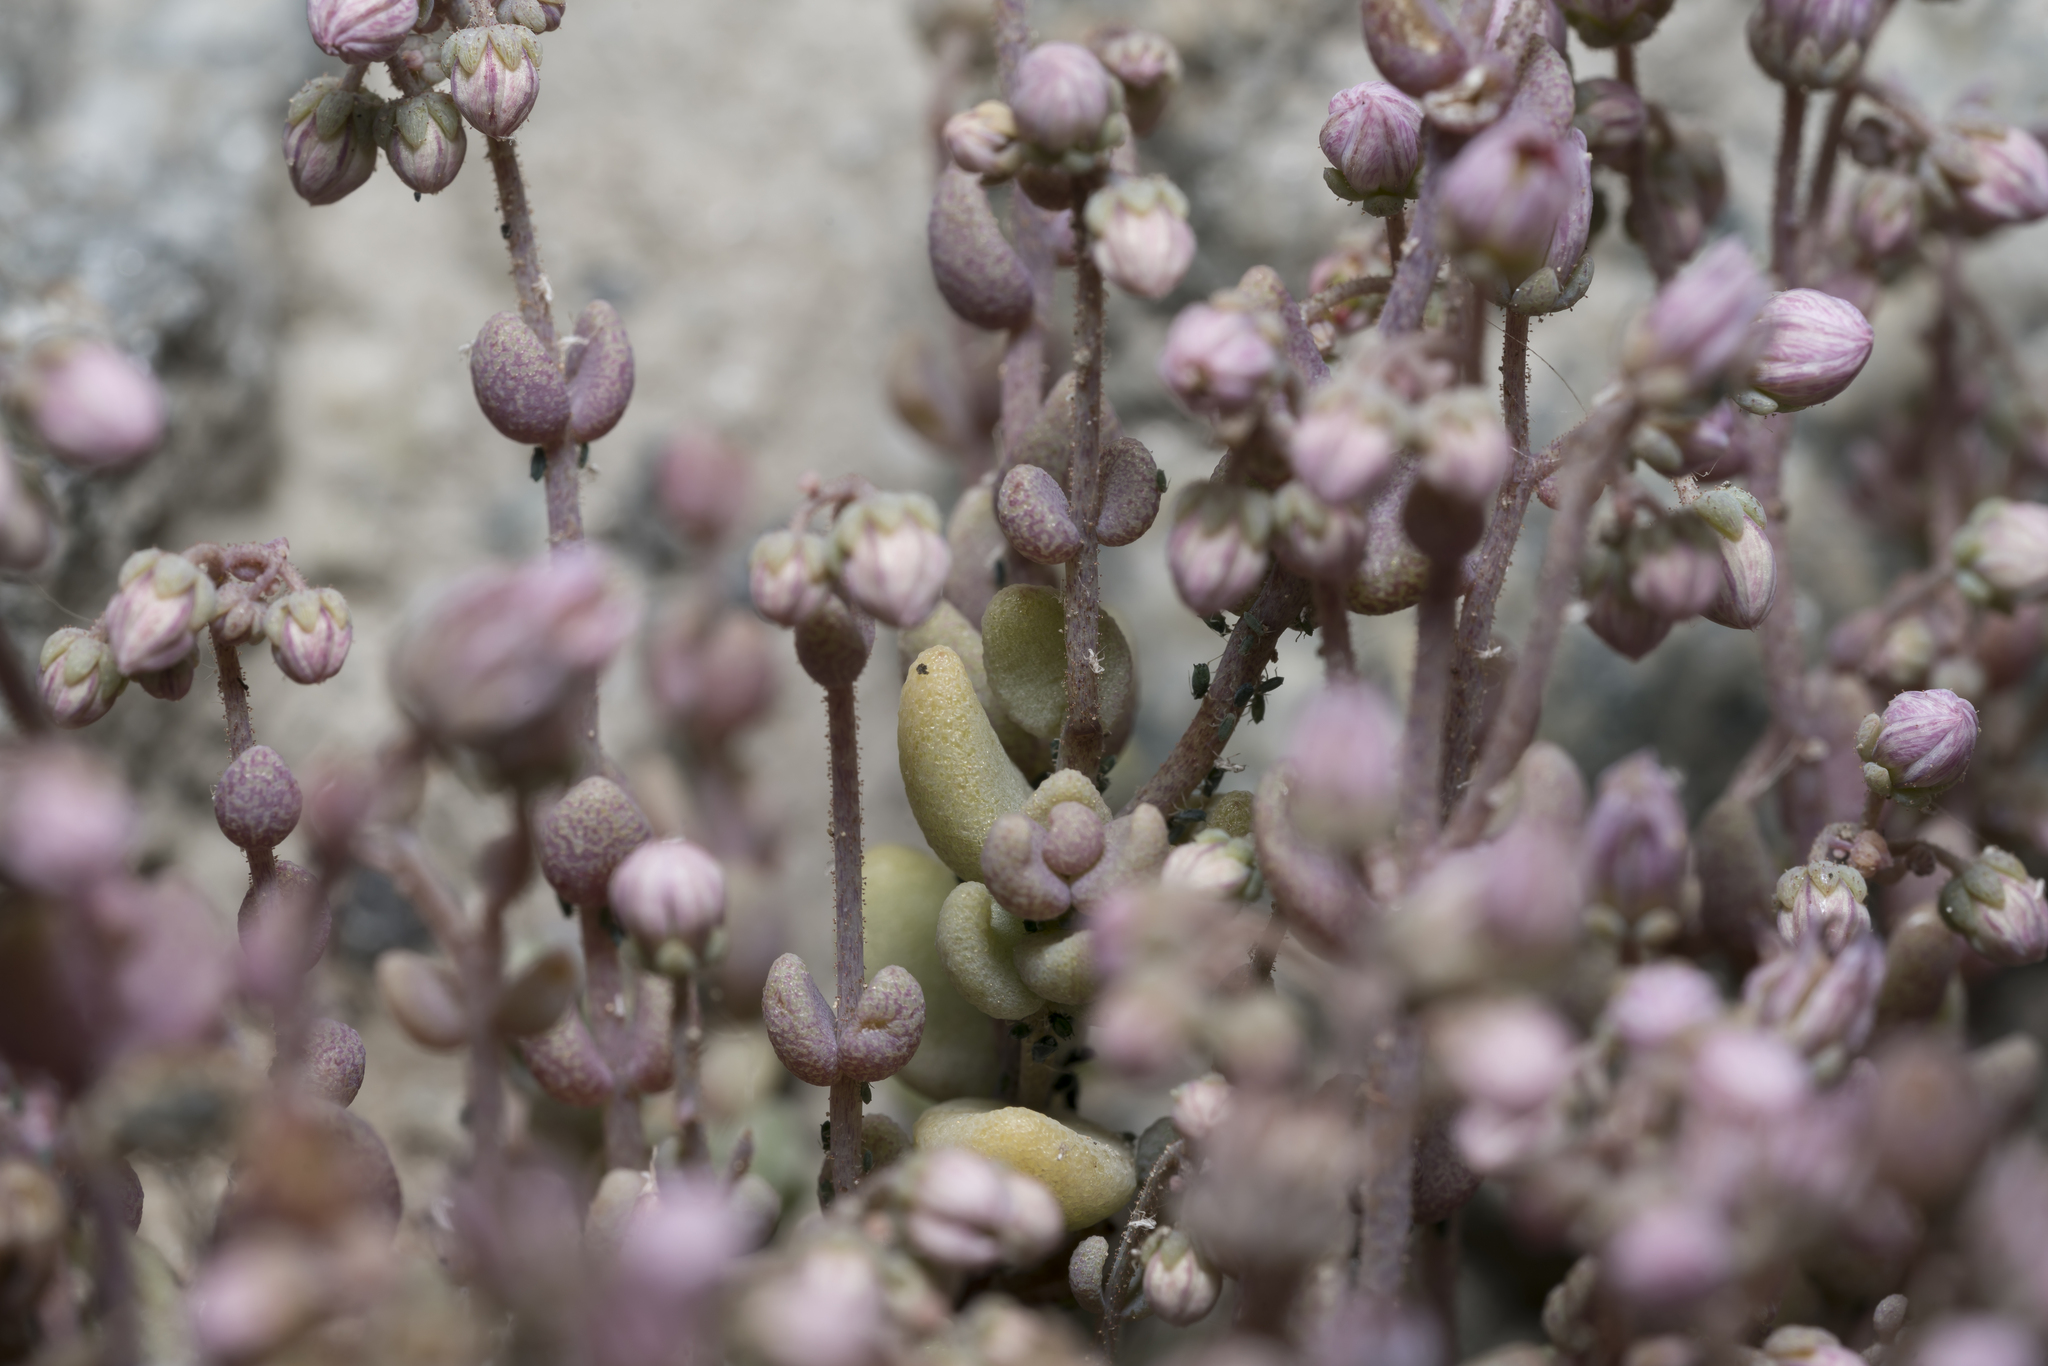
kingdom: Plantae
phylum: Tracheophyta
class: Magnoliopsida
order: Saxifragales
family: Crassulaceae
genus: Sedum
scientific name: Sedum dasyphyllum
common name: Thick-leaf stonecrop
